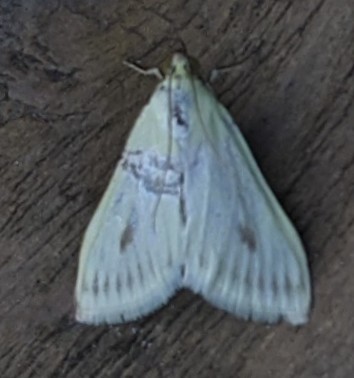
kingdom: Animalia
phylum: Arthropoda
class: Insecta
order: Lepidoptera
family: Crambidae
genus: Sitochroa
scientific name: Sitochroa palealis
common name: Greenish-yellow sitochroa moth
